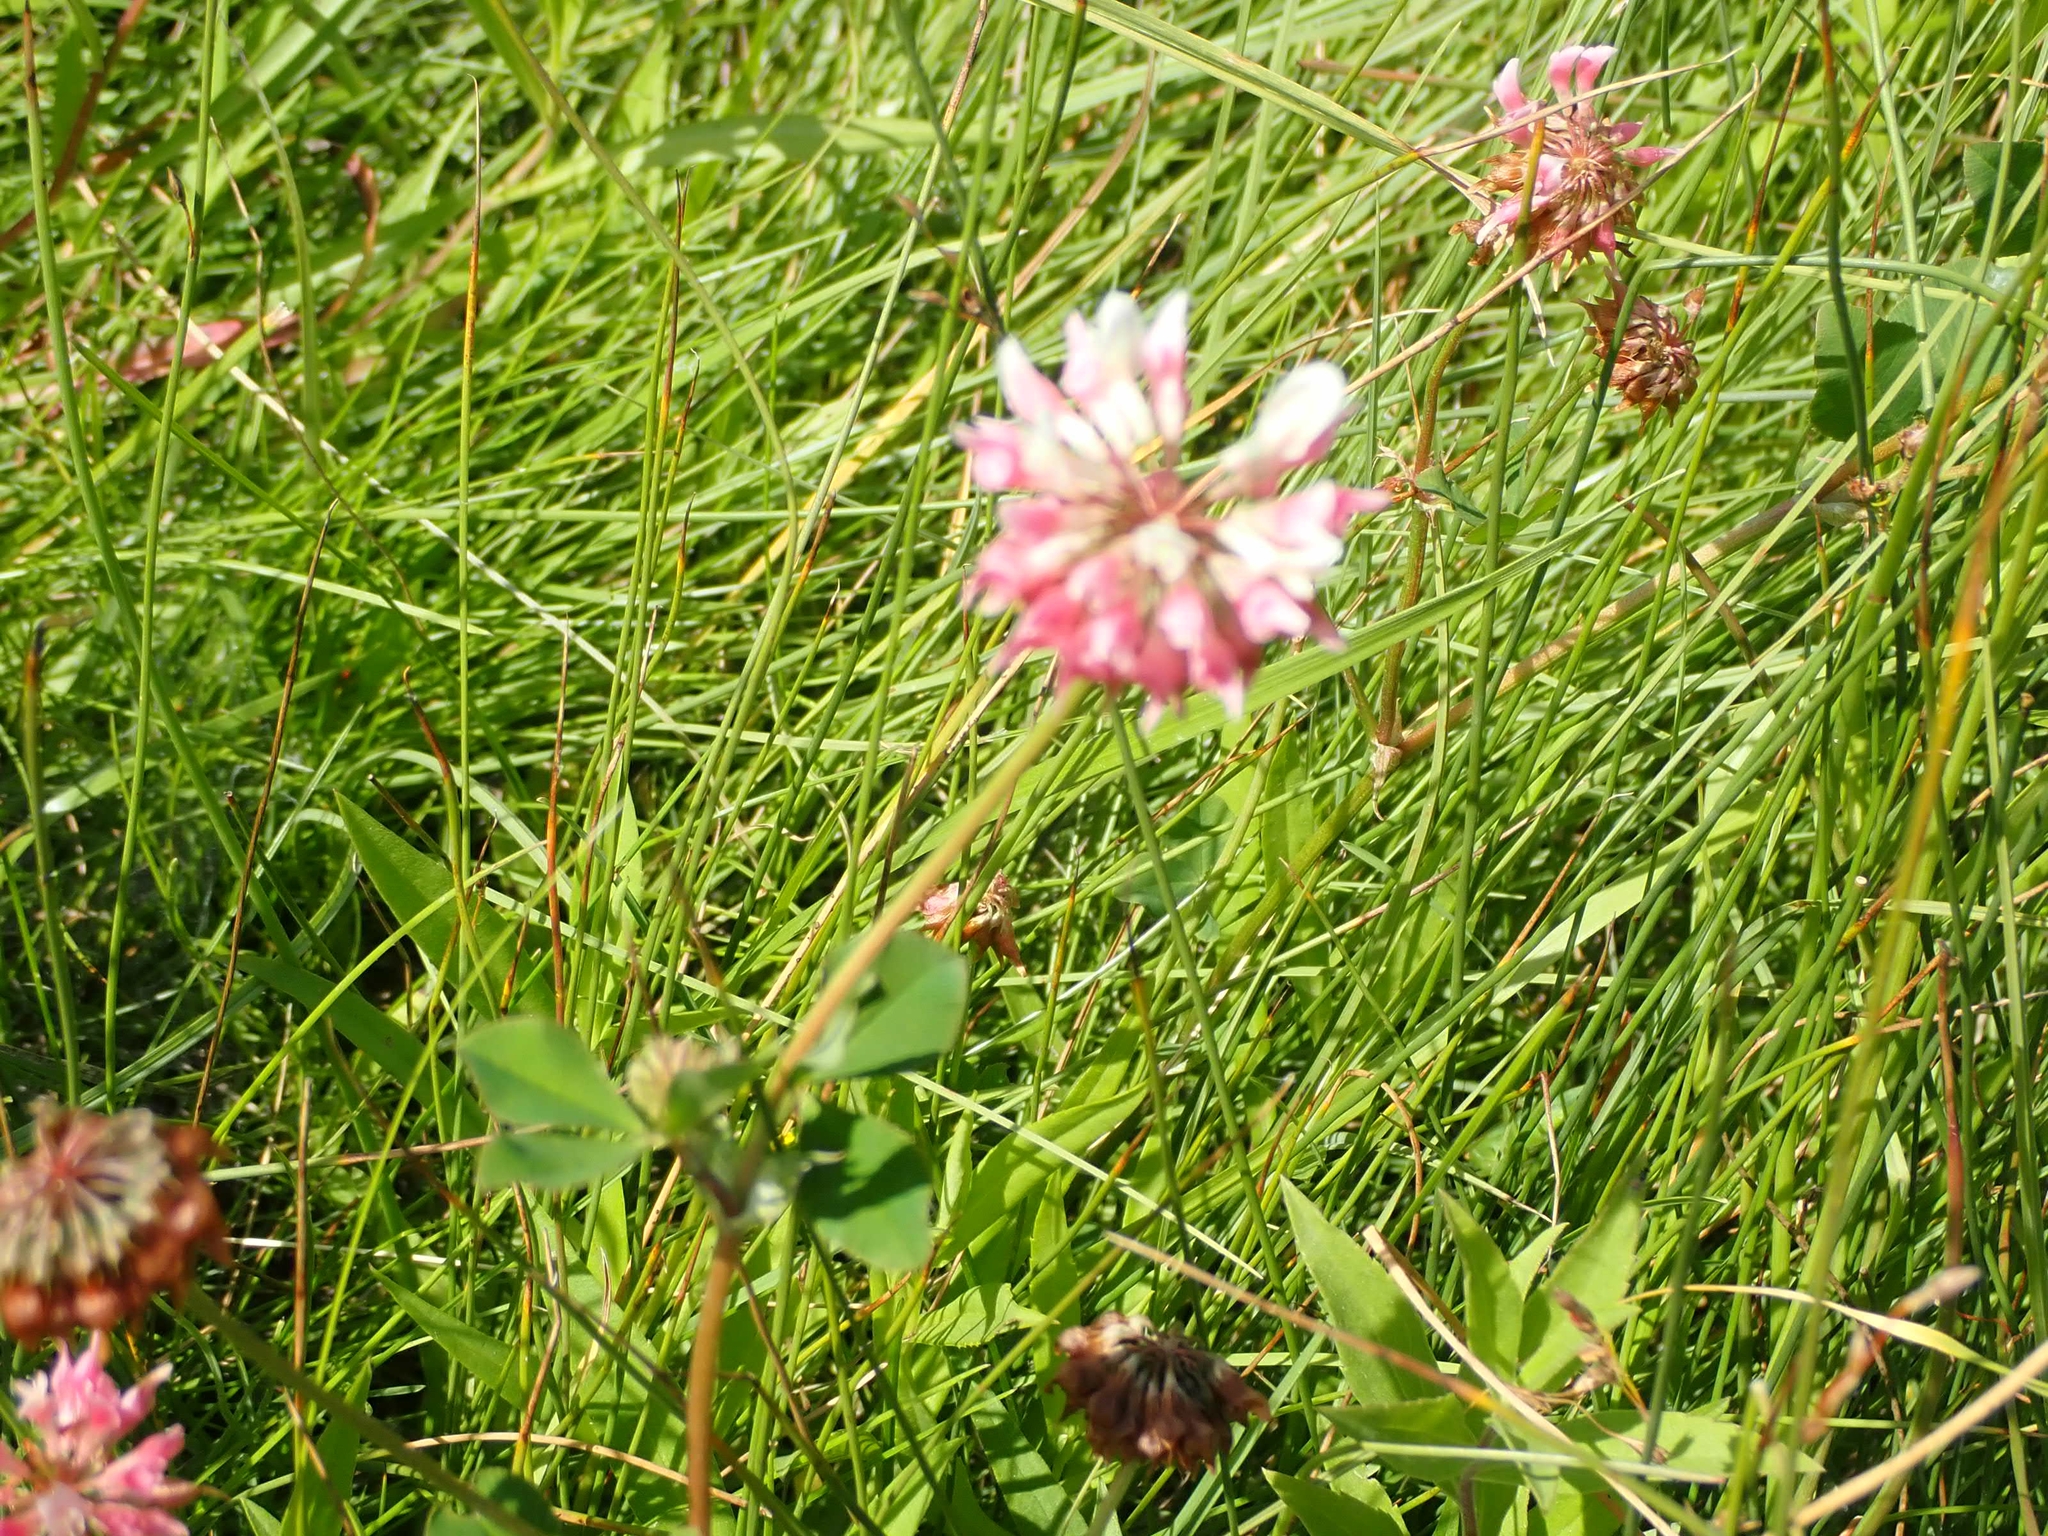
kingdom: Plantae
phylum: Tracheophyta
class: Magnoliopsida
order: Fabales
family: Fabaceae
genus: Trifolium
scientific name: Trifolium hybridum
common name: Alsike clover
